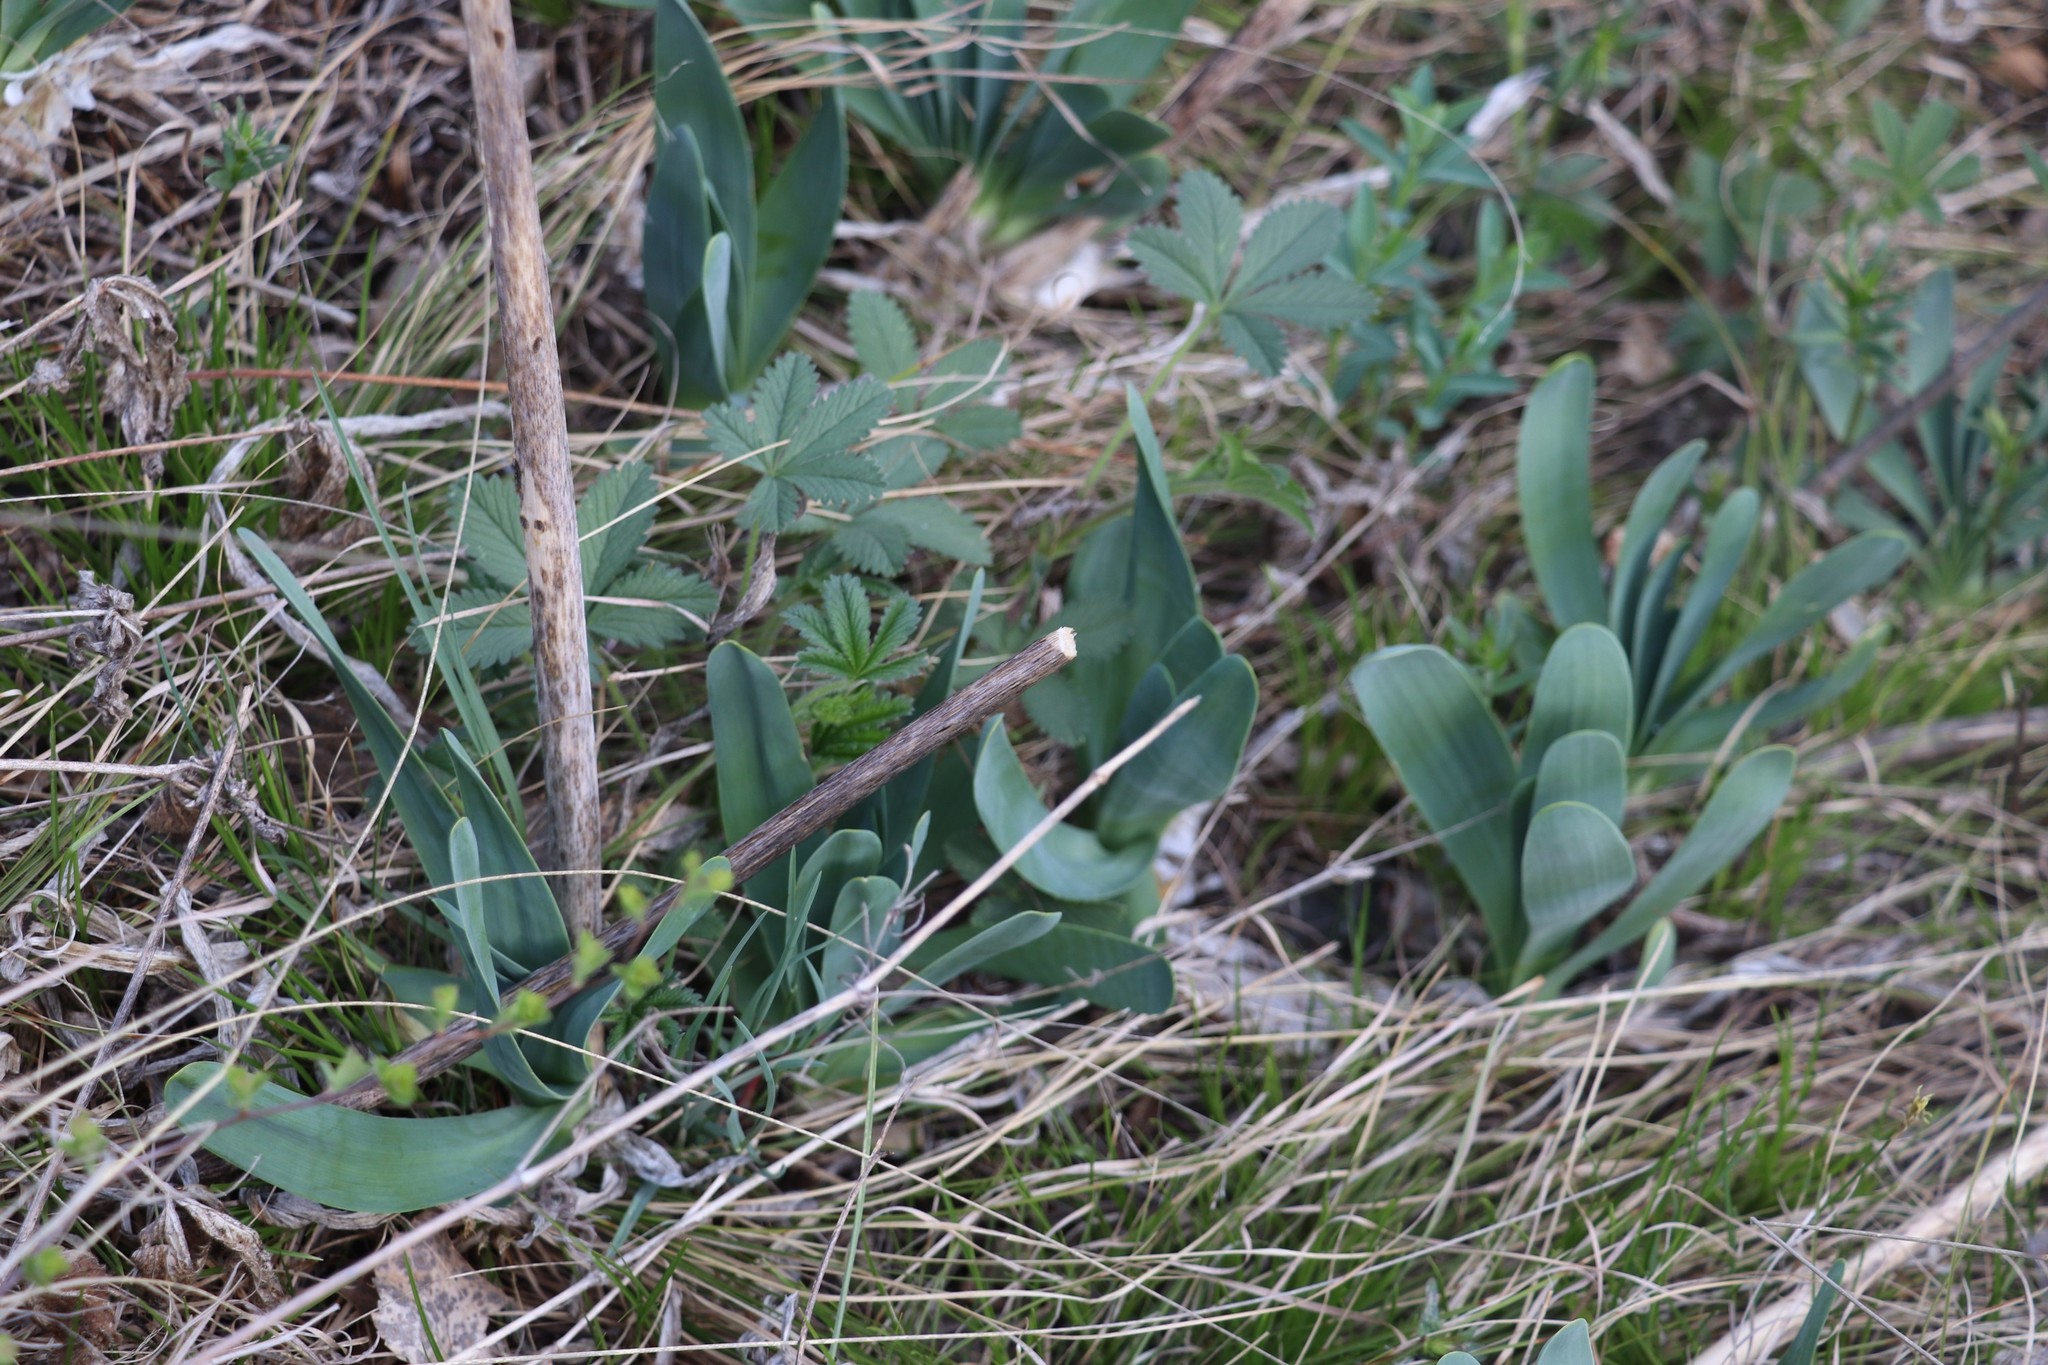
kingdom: Plantae
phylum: Tracheophyta
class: Liliopsida
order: Asparagales
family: Amaryllidaceae
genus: Allium
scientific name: Allium nutans
